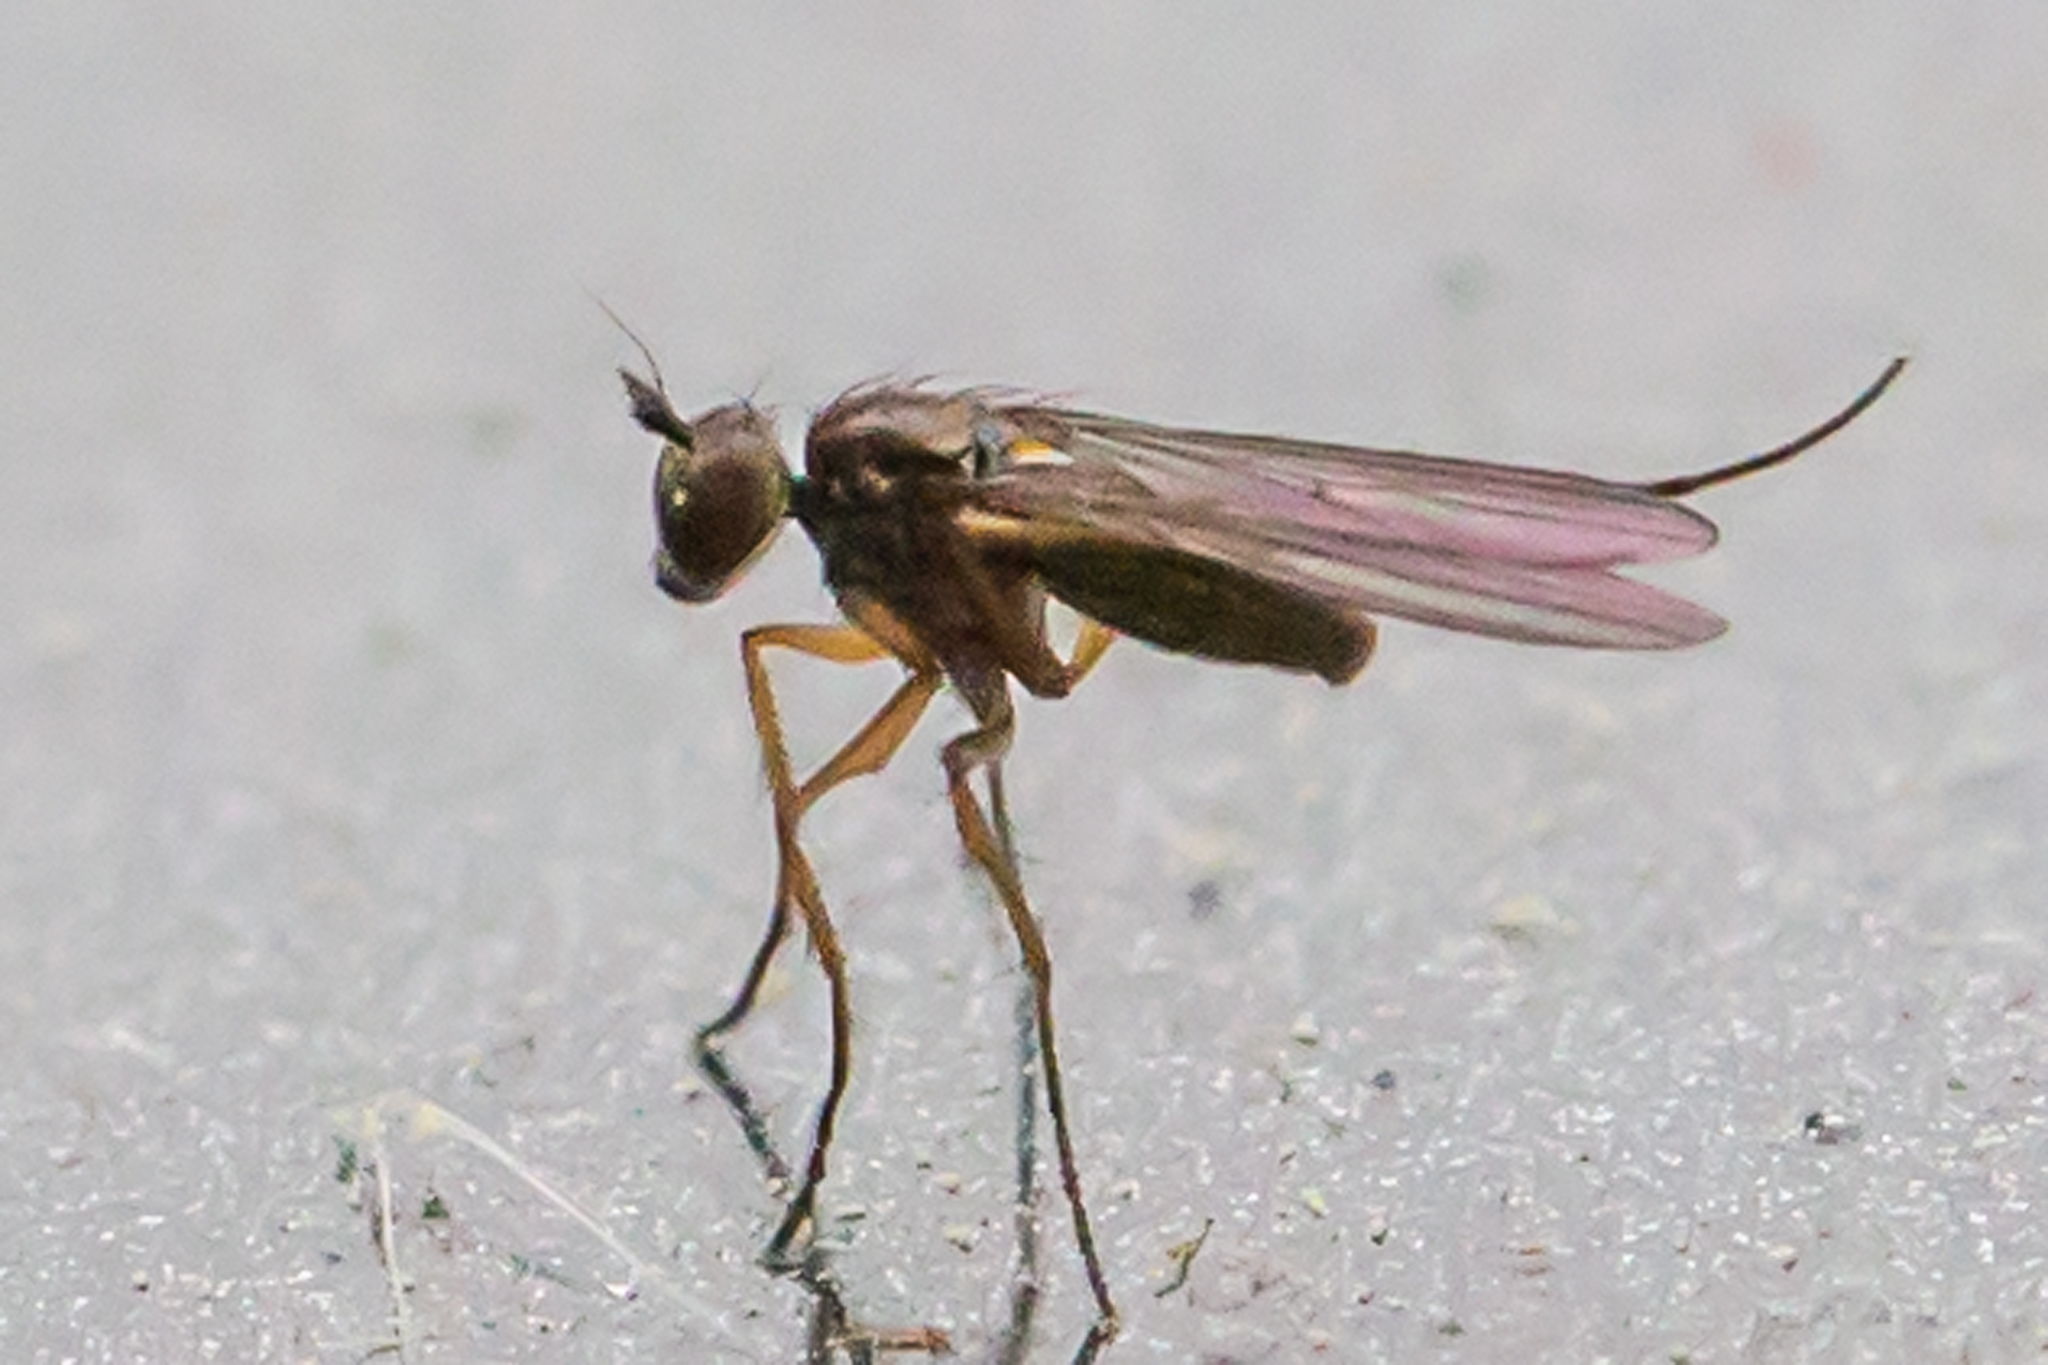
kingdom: Animalia
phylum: Arthropoda
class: Insecta
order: Diptera
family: Dolichopodidae
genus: Campsicnemus
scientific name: Campsicnemus hirtipes
